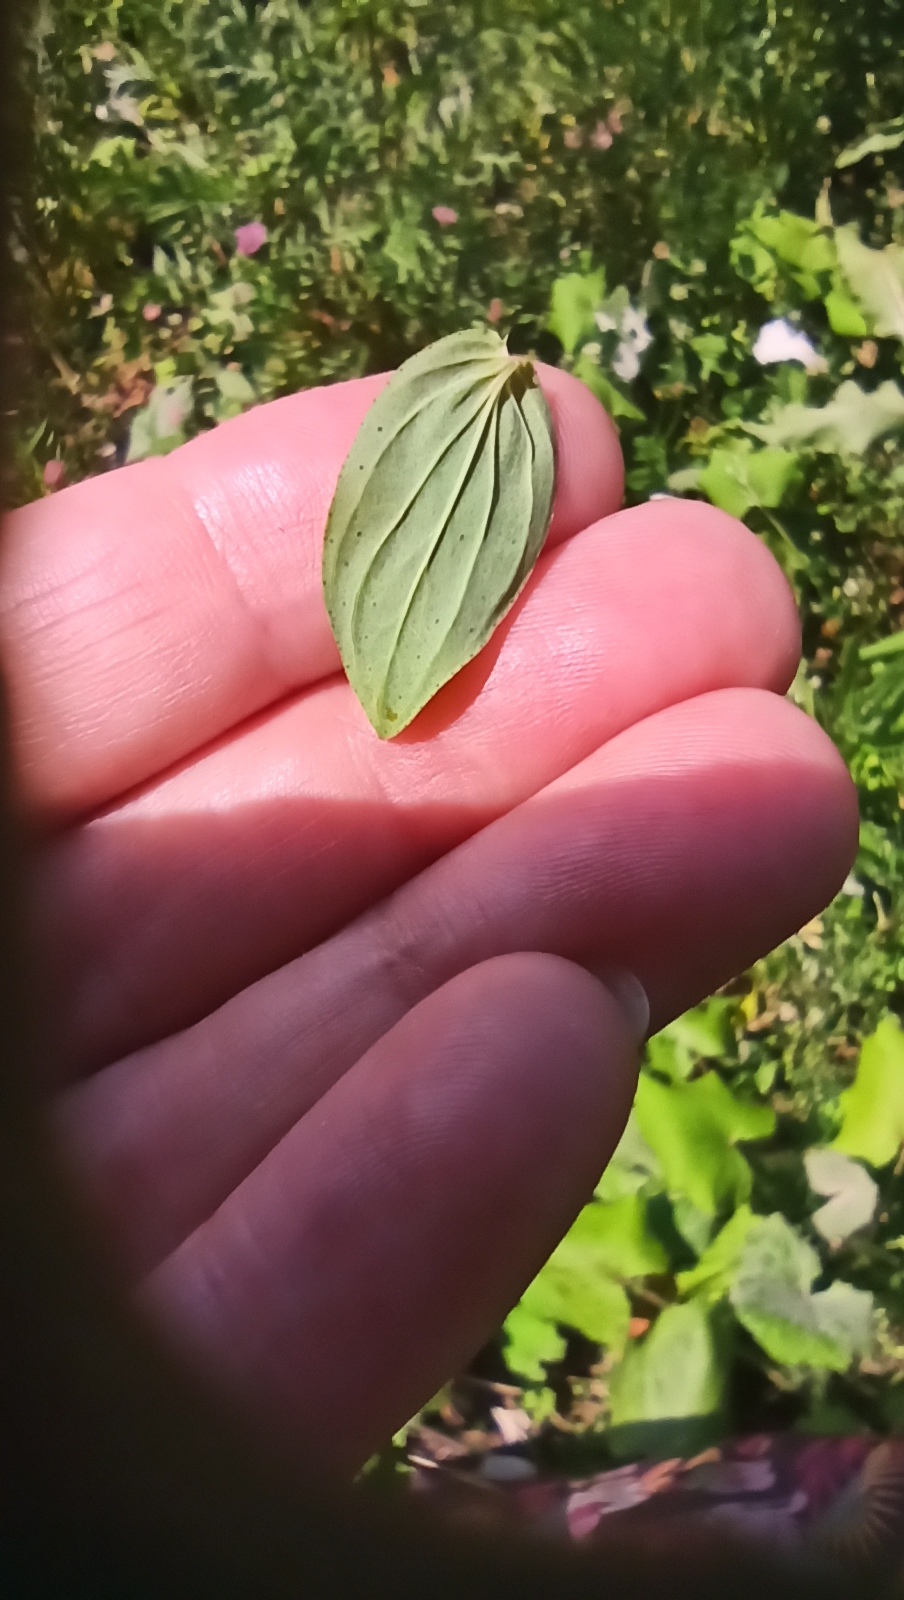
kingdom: Plantae
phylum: Tracheophyta
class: Magnoliopsida
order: Malpighiales
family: Hypericaceae
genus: Hypericum
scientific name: Hypericum perforatum
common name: Common st. johnswort
